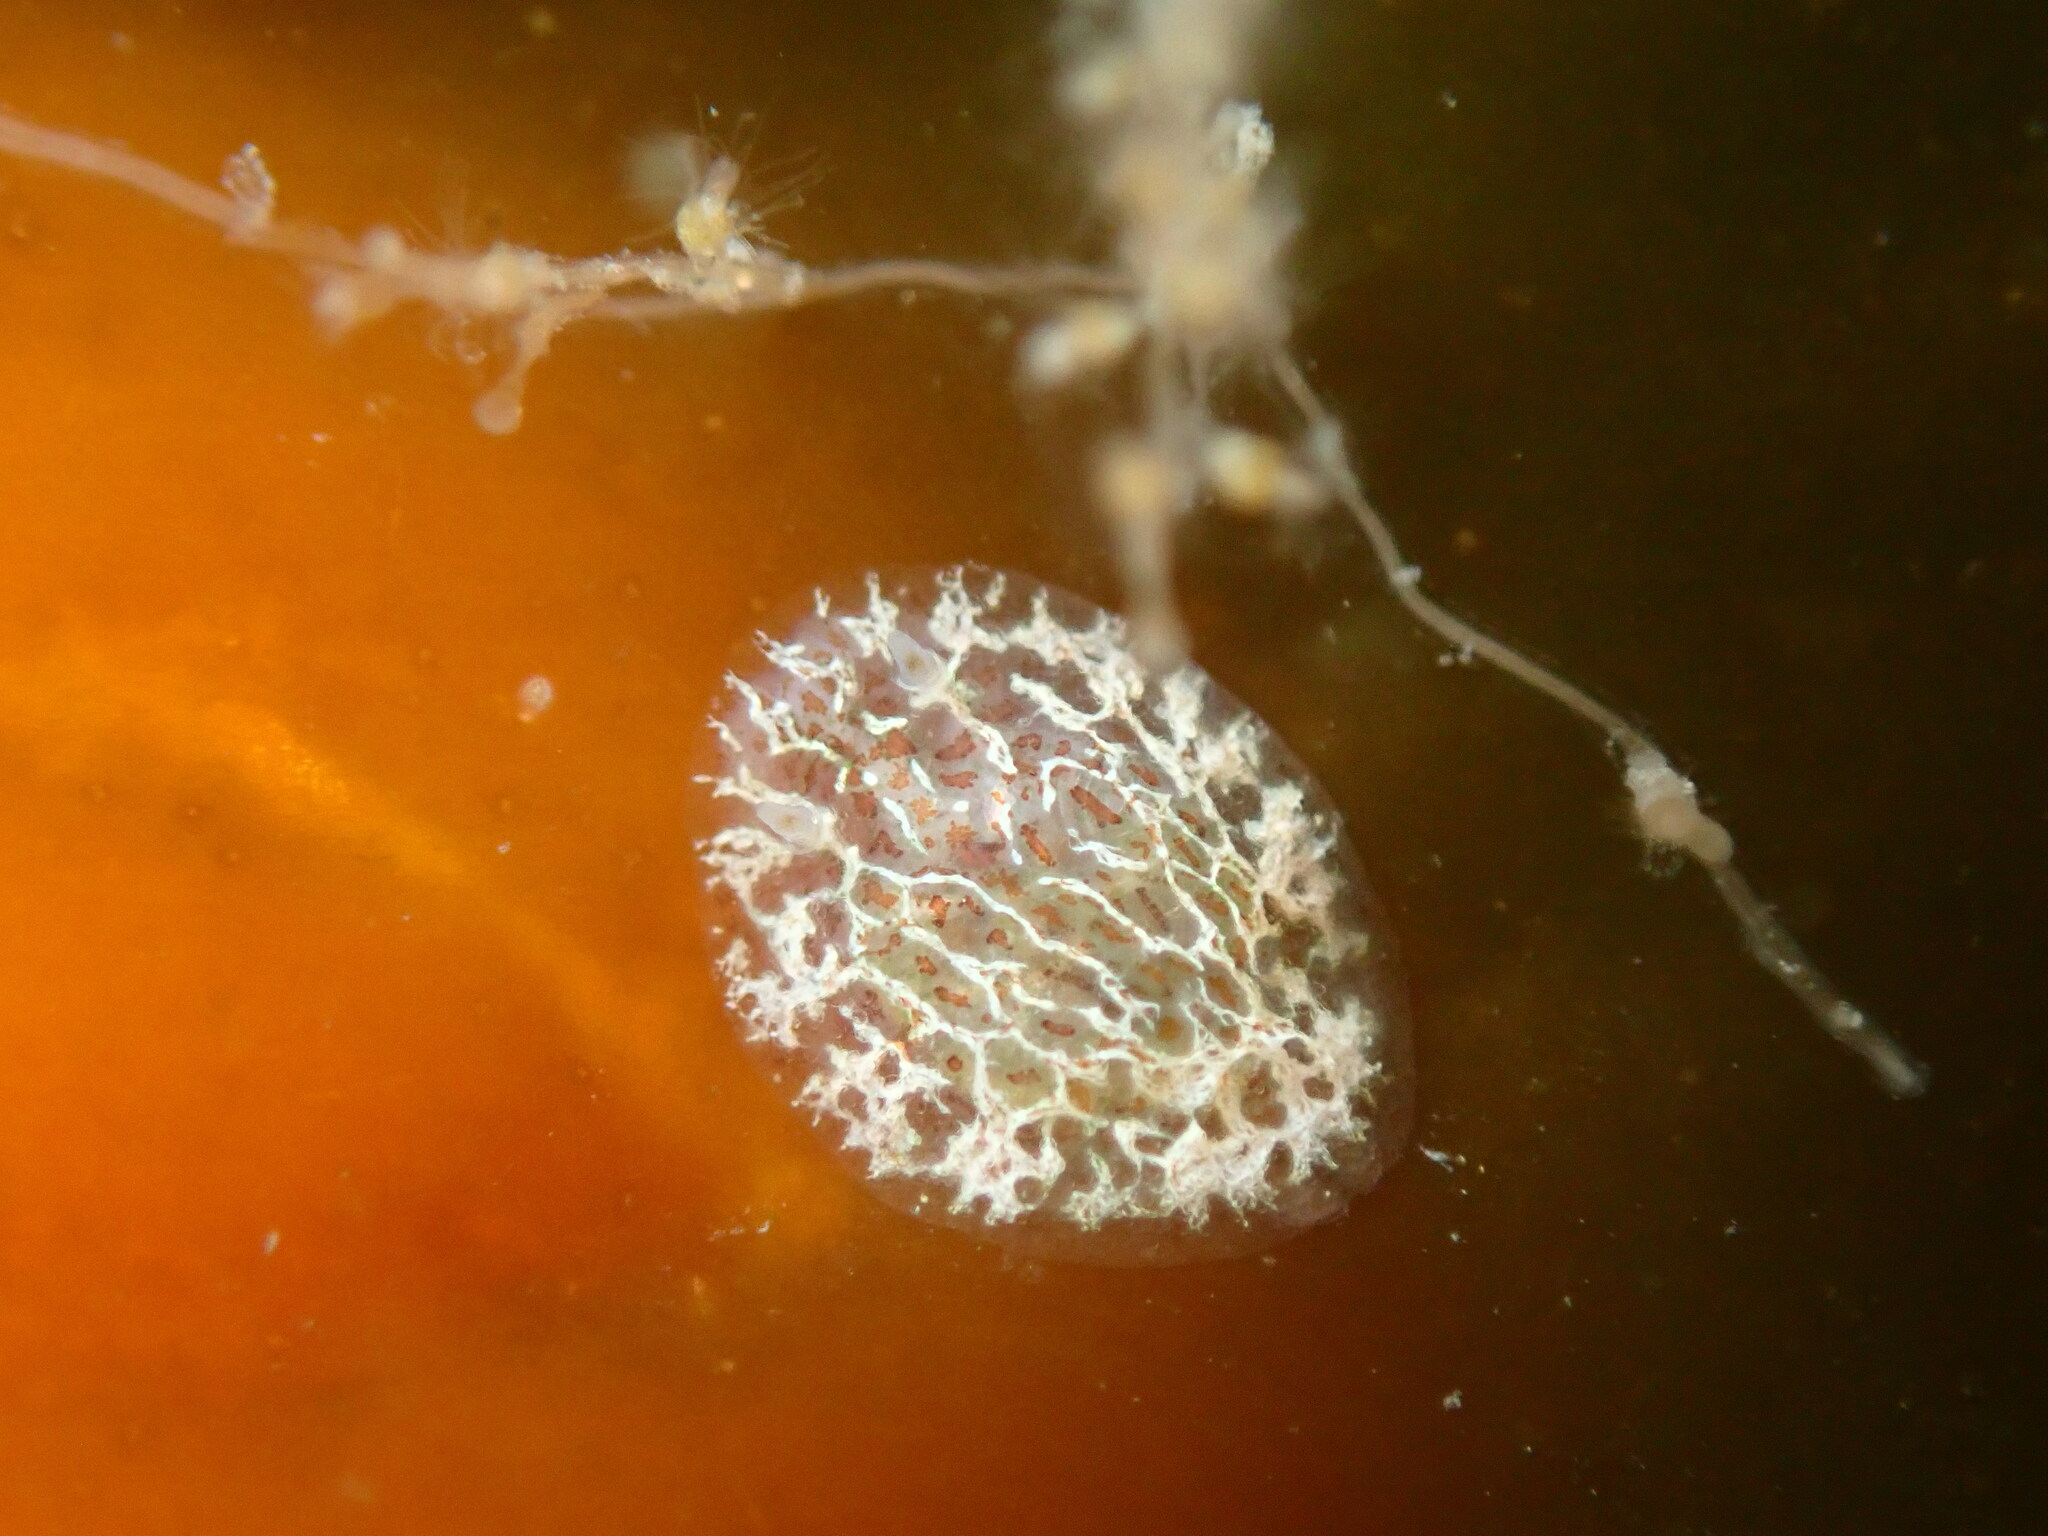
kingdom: Animalia
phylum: Mollusca
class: Gastropoda
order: Nudibranchia
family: Corambidae
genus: Corambe
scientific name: Corambe steinbergae
